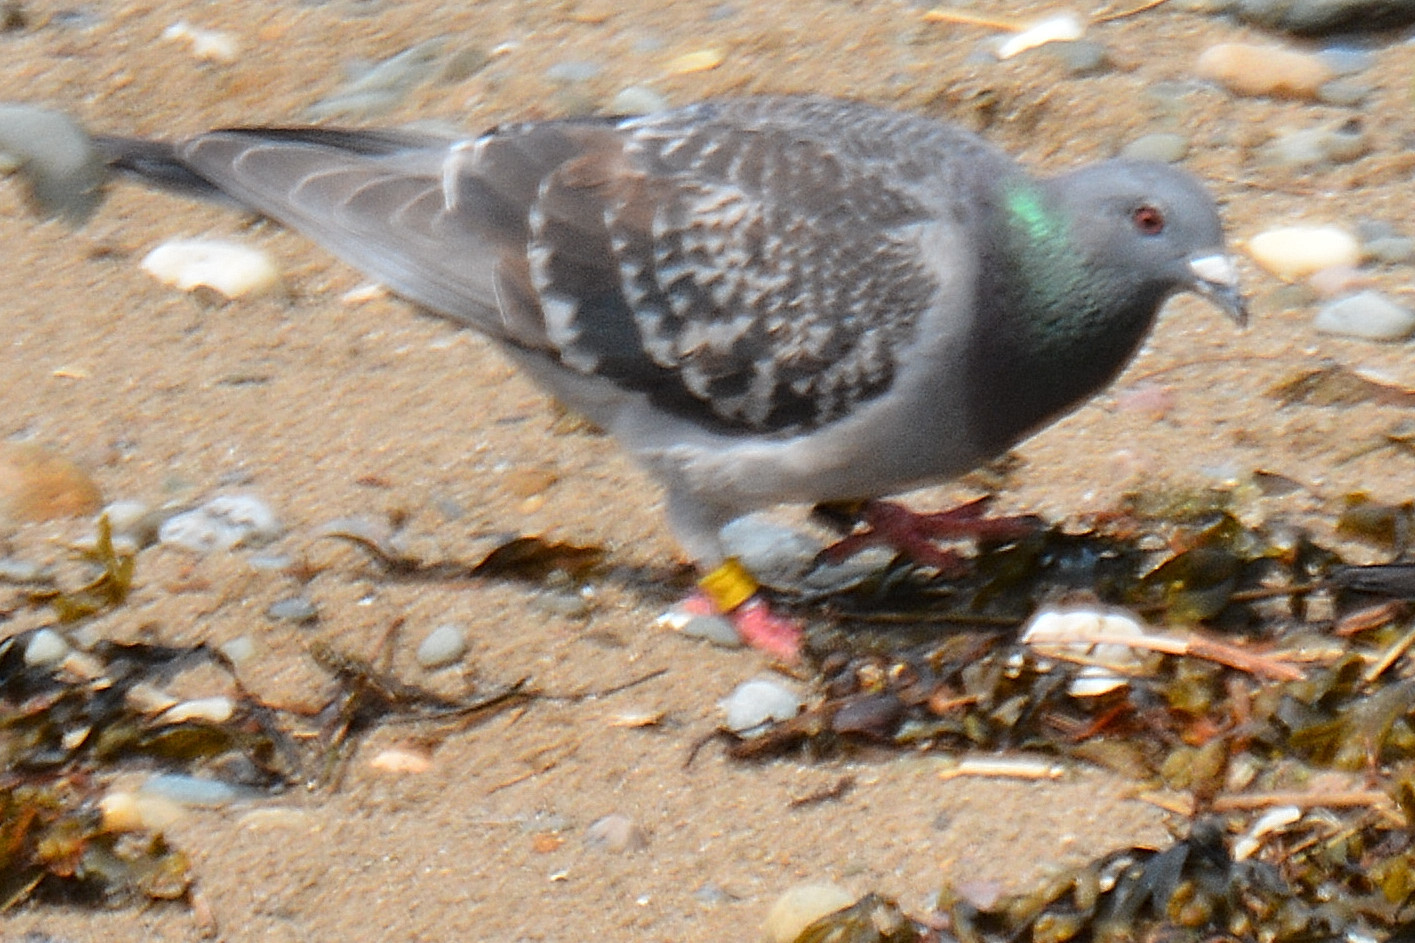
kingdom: Animalia
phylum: Chordata
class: Aves
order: Columbiformes
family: Columbidae
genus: Columba
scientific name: Columba livia
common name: Rock pigeon
